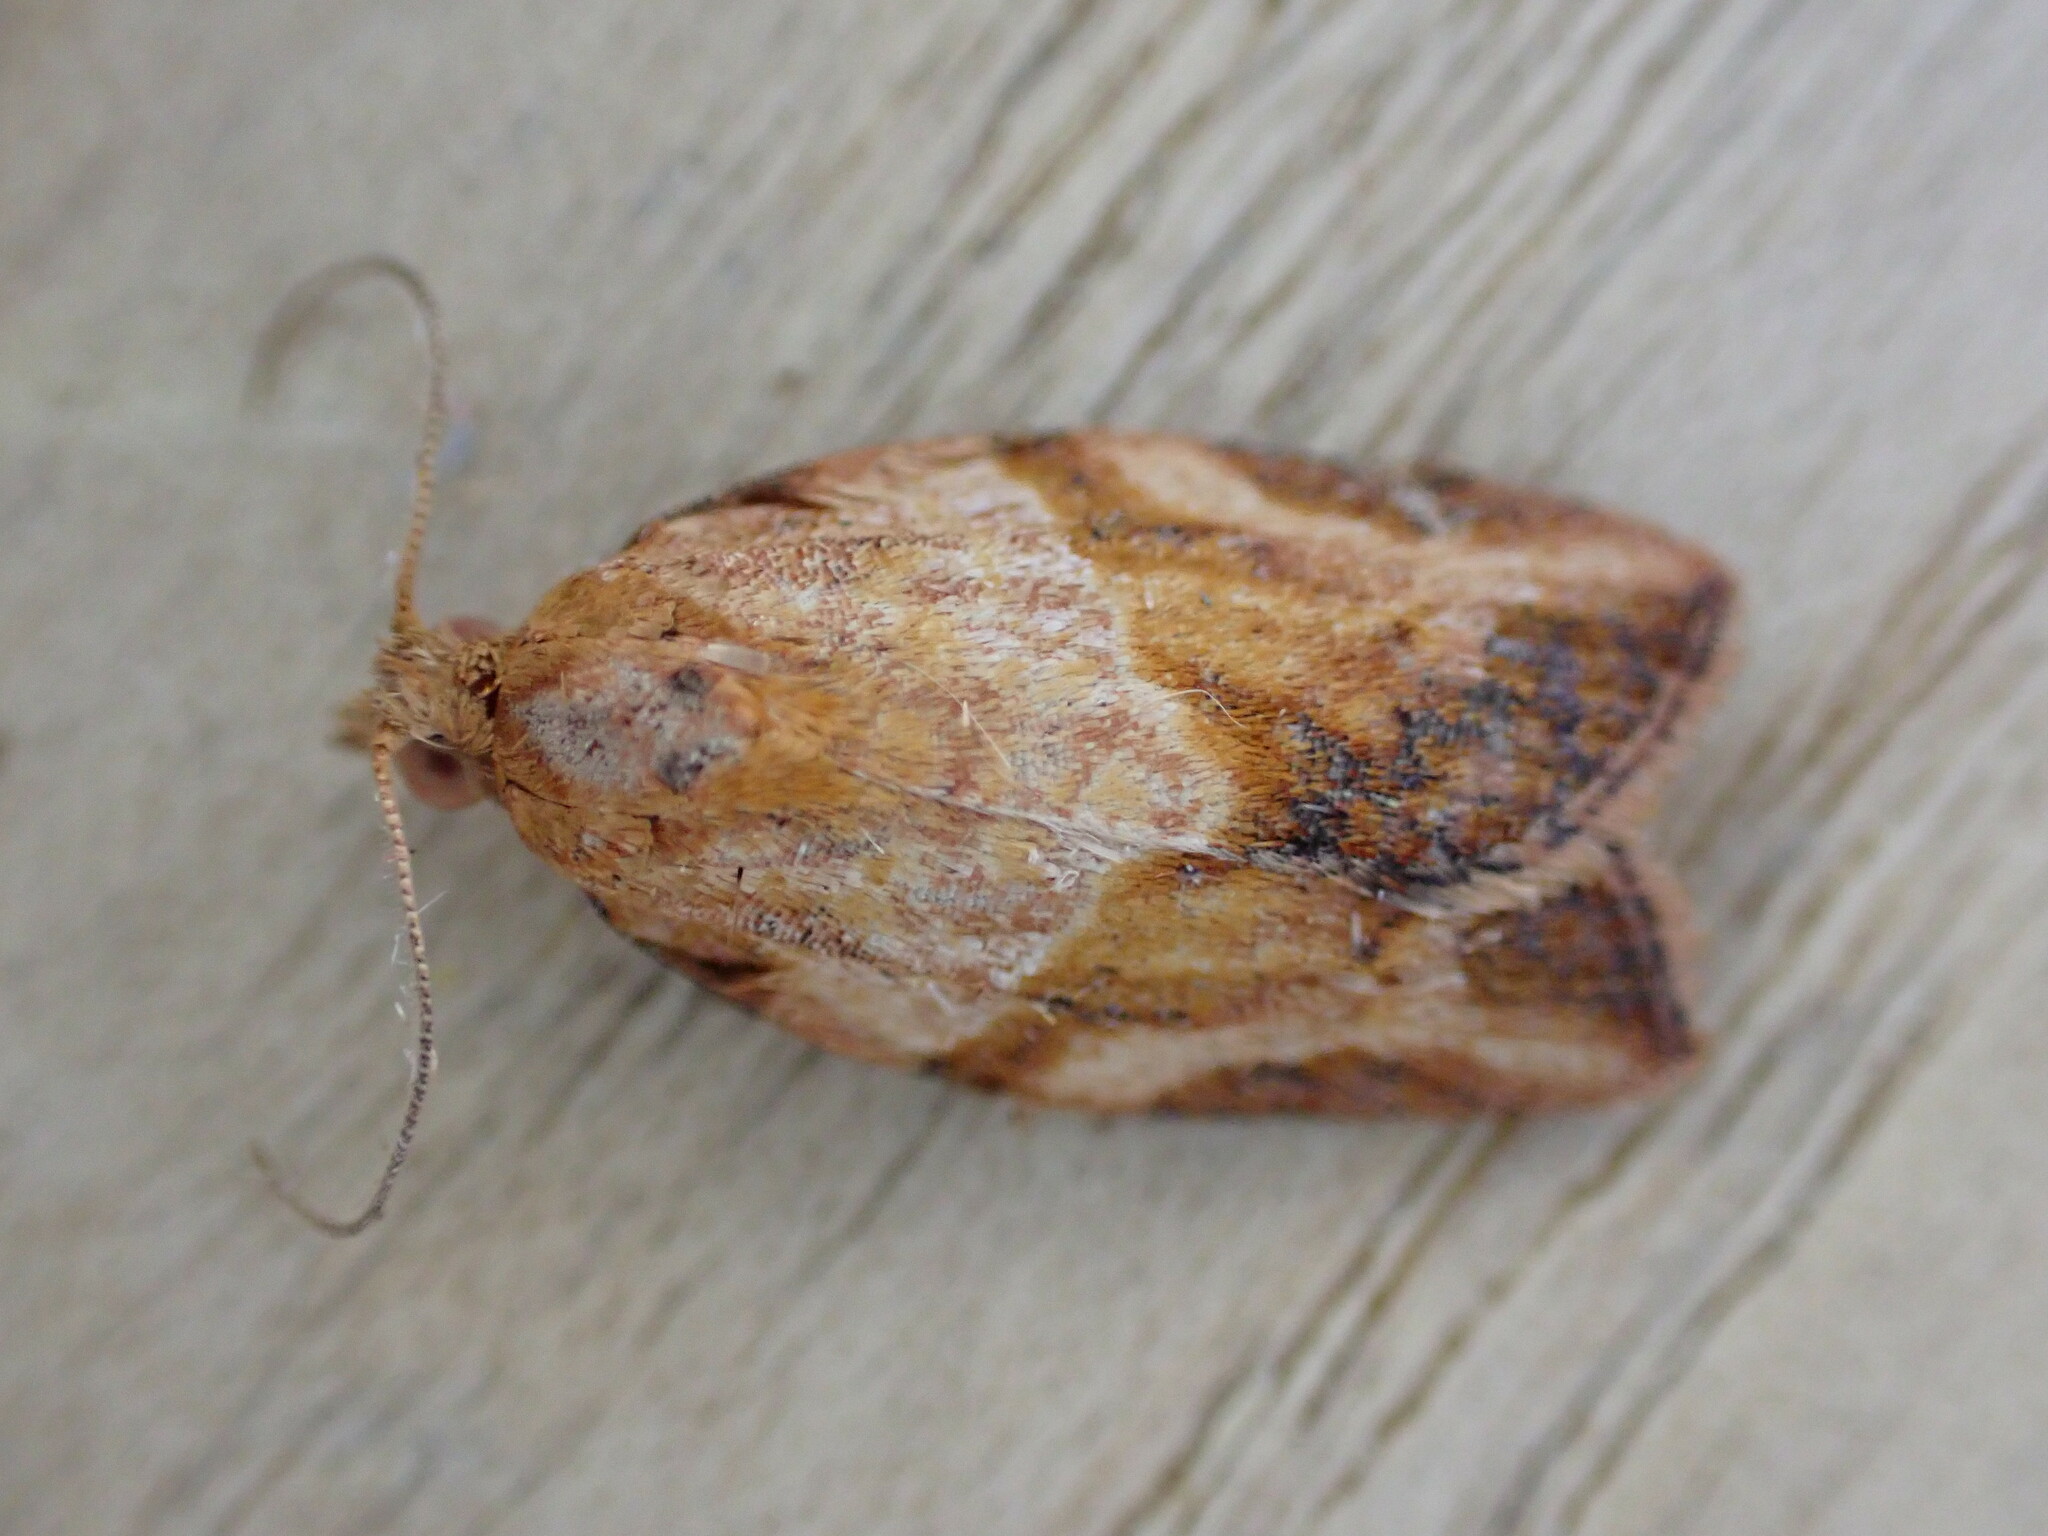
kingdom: Animalia
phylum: Arthropoda
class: Insecta
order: Lepidoptera
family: Tortricidae
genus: Epiphyas
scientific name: Epiphyas postvittana
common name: Light brown apple moth
